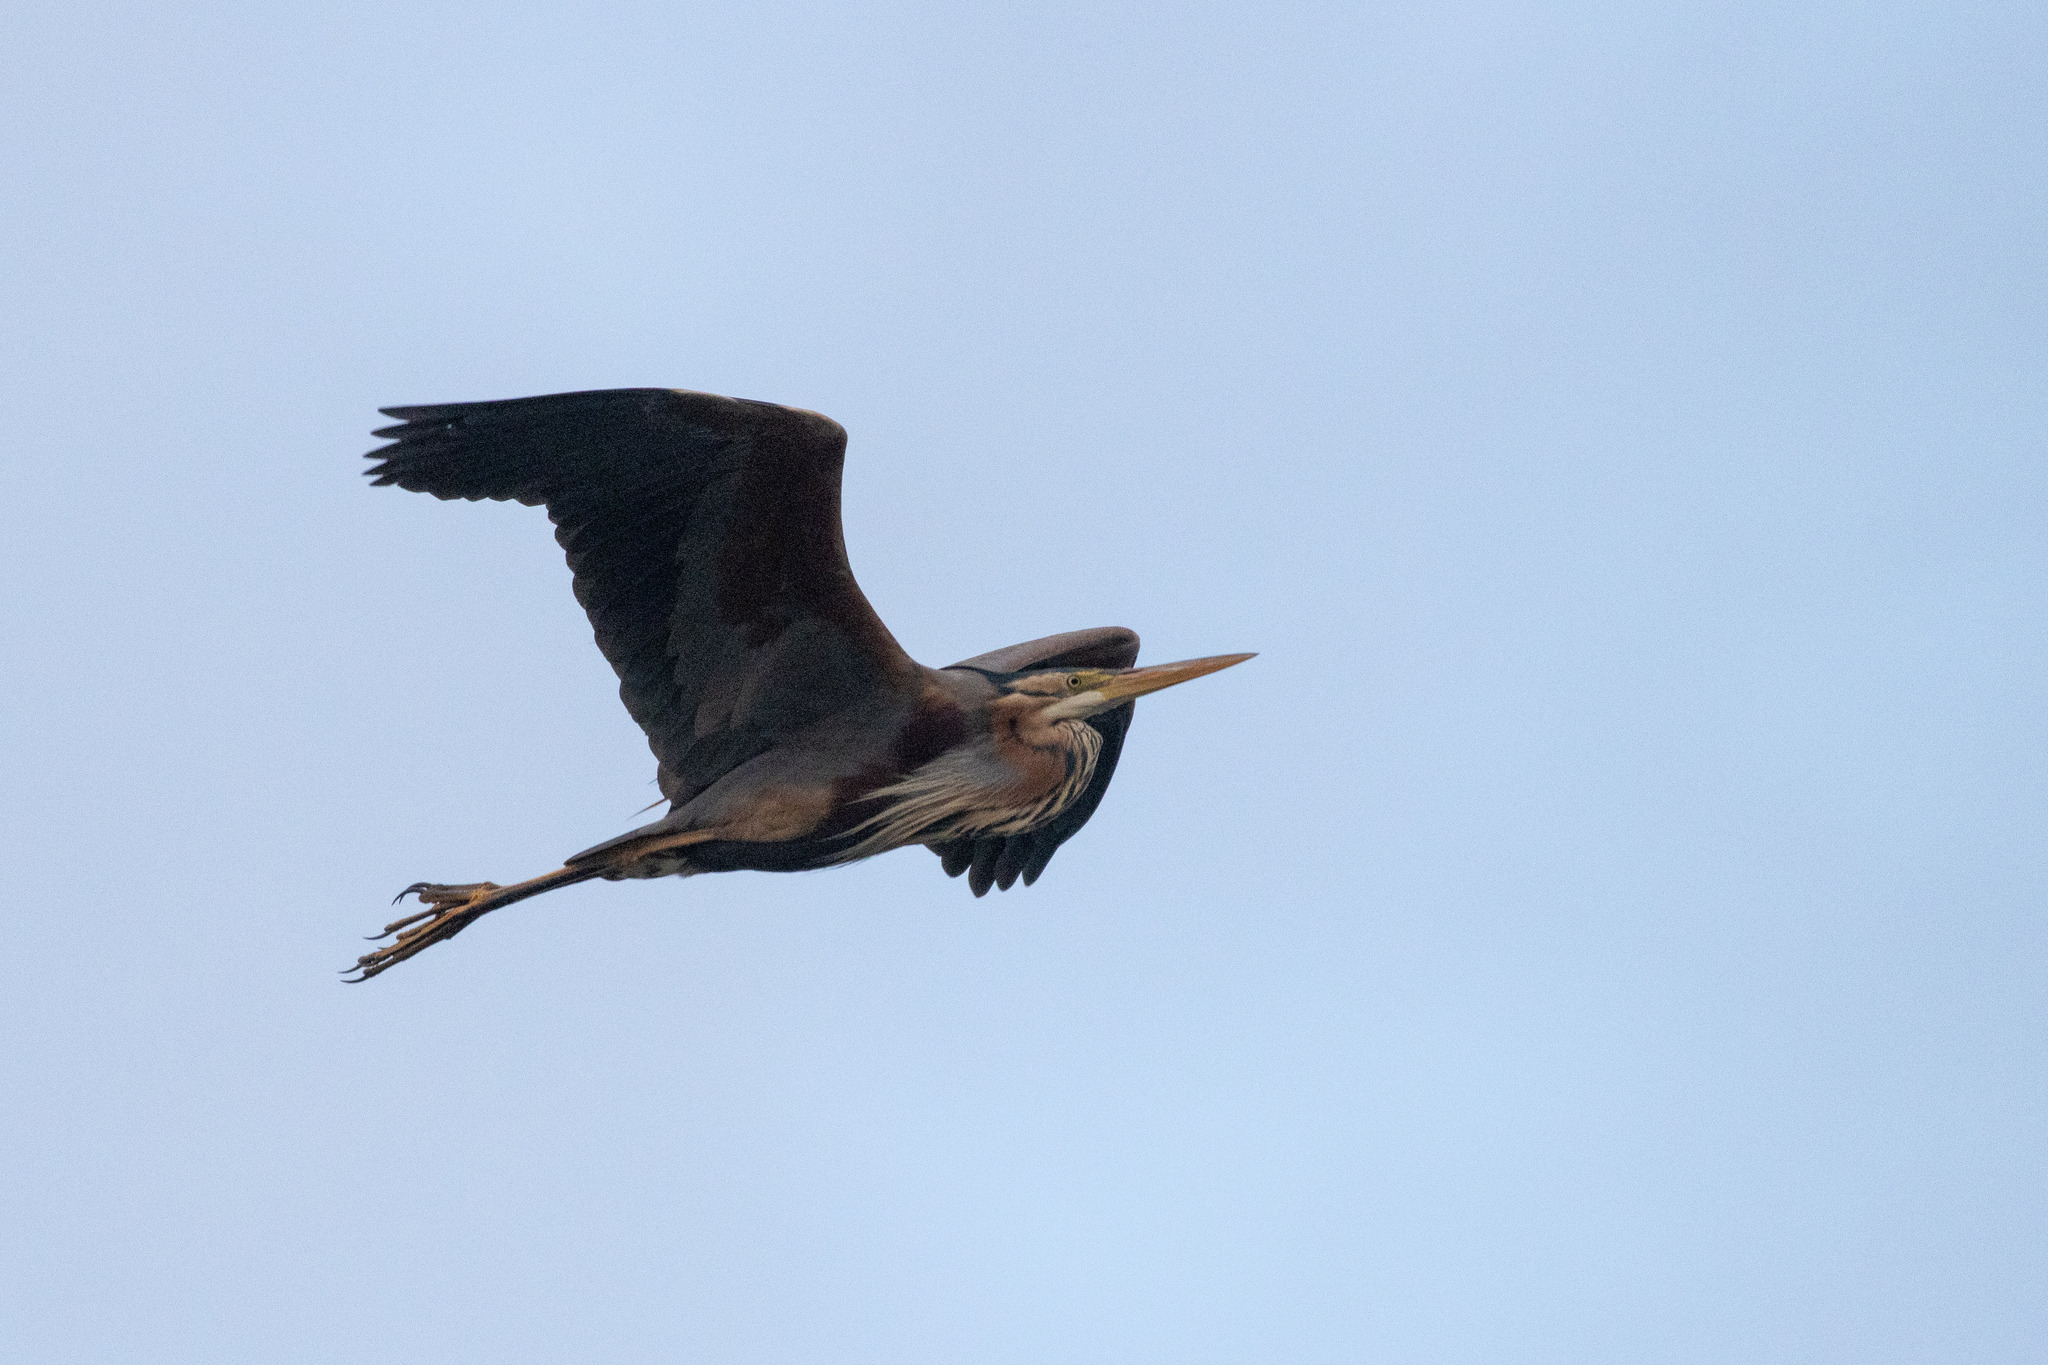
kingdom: Animalia
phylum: Chordata
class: Aves
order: Pelecaniformes
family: Ardeidae
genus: Ardea
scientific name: Ardea purpurea
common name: Purple heron
